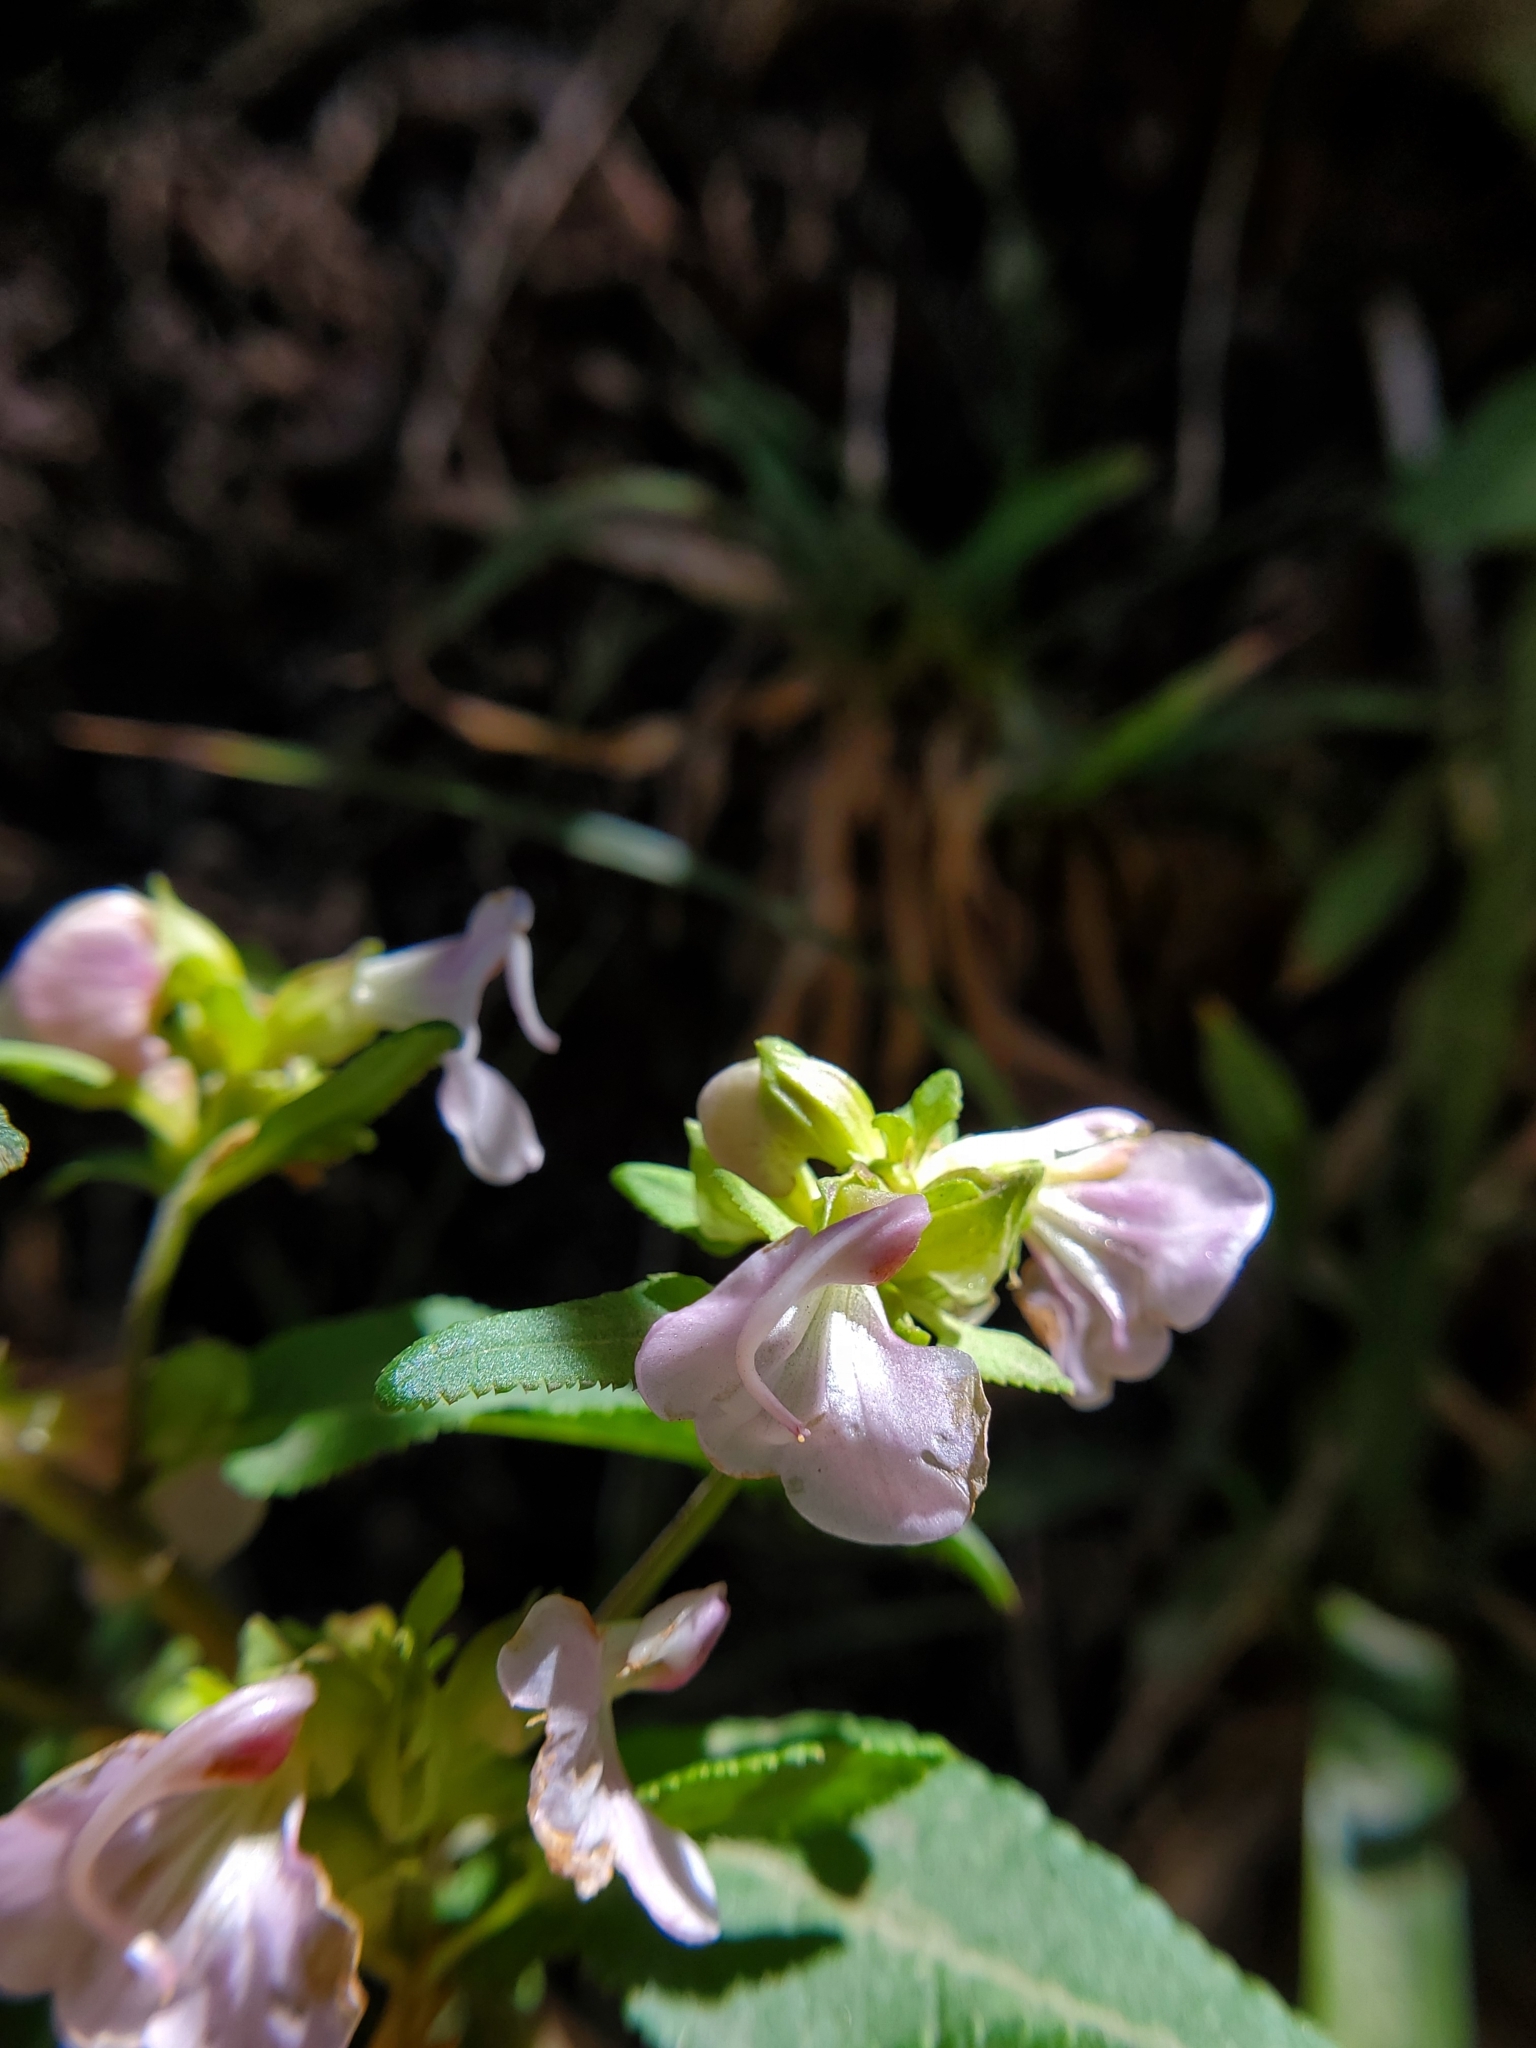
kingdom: Plantae
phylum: Tracheophyta
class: Magnoliopsida
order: Lamiales
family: Orobanchaceae
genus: Pedicularis
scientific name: Pedicularis racemosa
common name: Leafy lousewort
